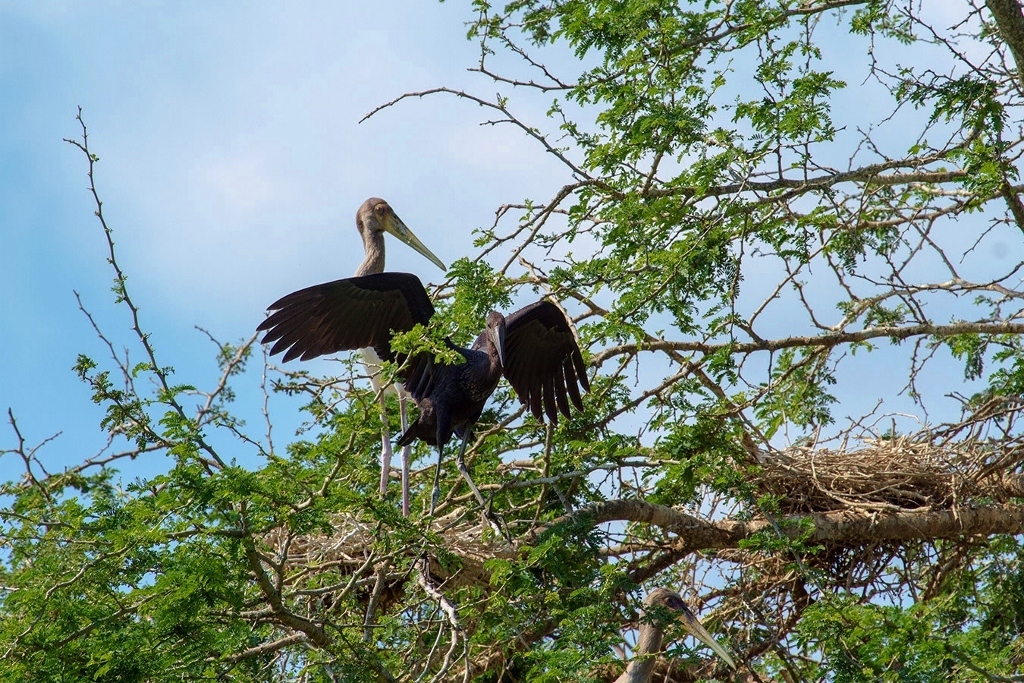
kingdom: Animalia
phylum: Chordata
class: Aves
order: Ciconiiformes
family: Ciconiidae
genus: Anastomus
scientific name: Anastomus lamelligerus
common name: African openbill
